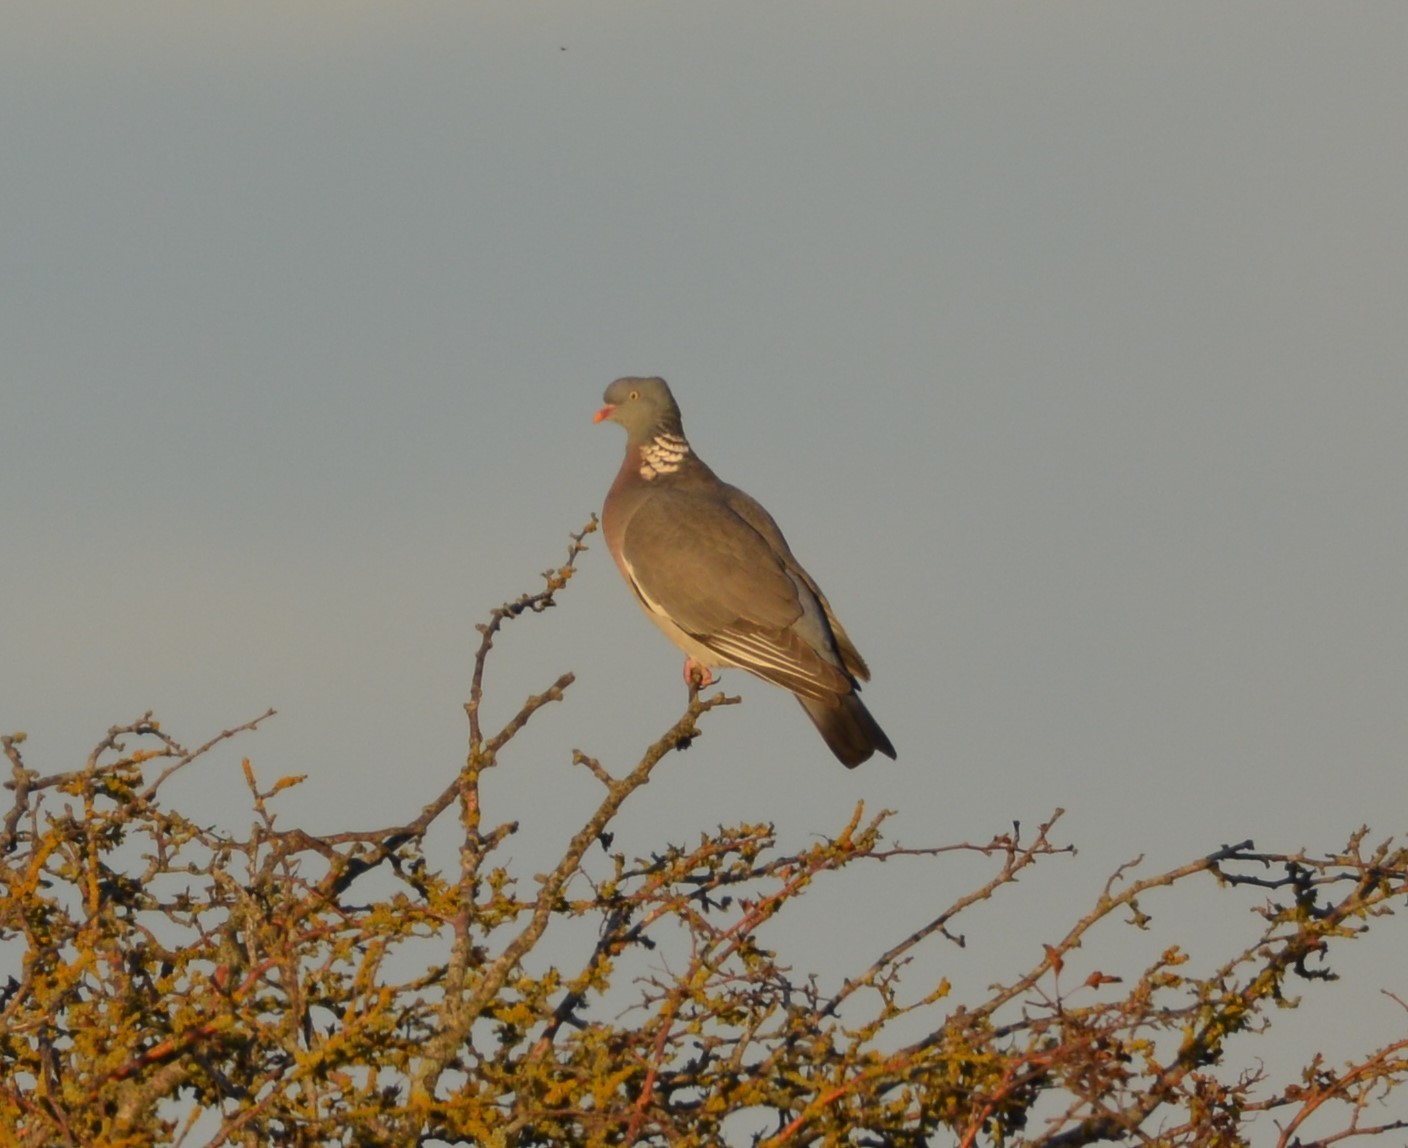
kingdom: Animalia
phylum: Chordata
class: Aves
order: Columbiformes
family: Columbidae
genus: Columba
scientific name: Columba palumbus
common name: Common wood pigeon
